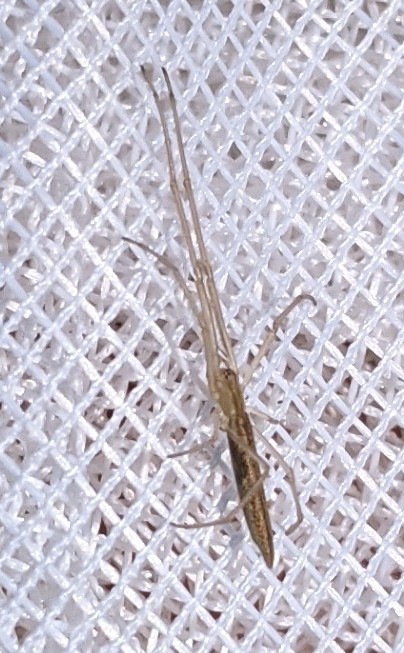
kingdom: Animalia
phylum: Arthropoda
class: Arachnida
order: Araneae
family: Tetragnathidae
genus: Tetragnatha
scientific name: Tetragnatha caudata
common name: Longjawed orb weavers
